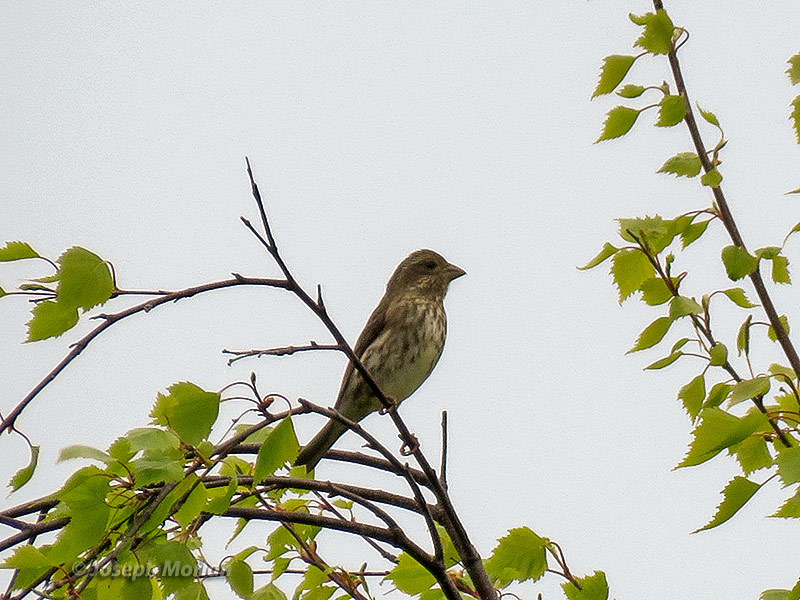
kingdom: Animalia
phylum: Chordata
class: Aves
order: Passeriformes
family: Fringillidae
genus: Haemorhous
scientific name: Haemorhous purpureus
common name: Purple finch
